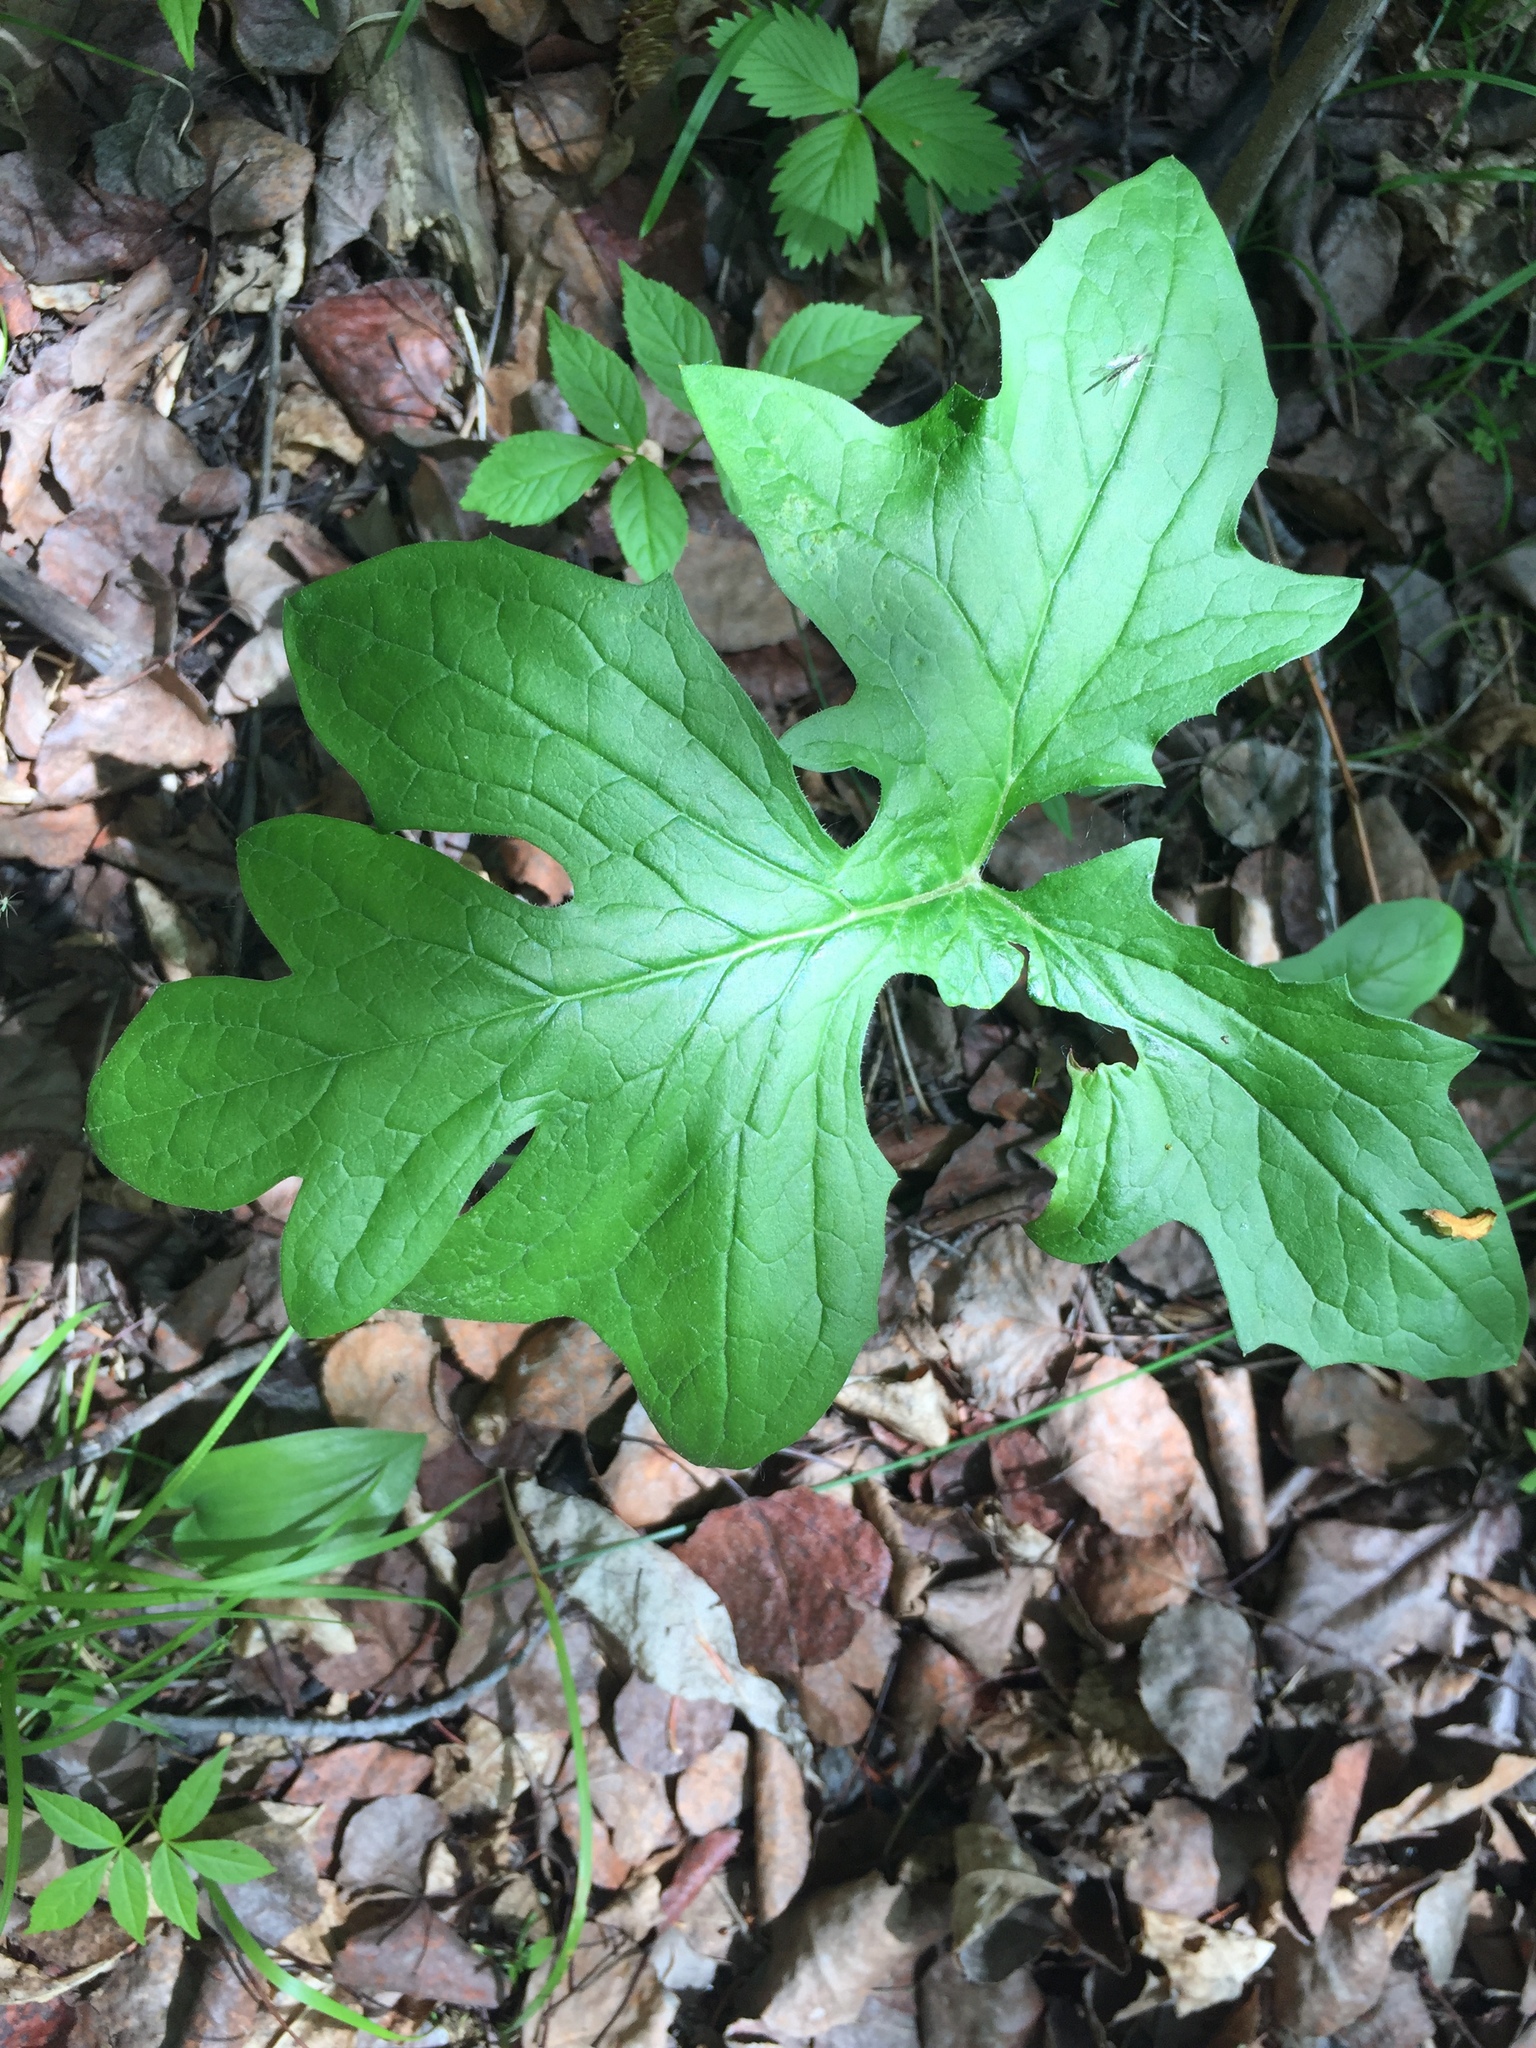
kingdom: Plantae
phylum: Tracheophyta
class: Magnoliopsida
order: Asterales
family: Asteraceae
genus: Nabalus
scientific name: Nabalus albus
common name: White rattlesnakeroot
